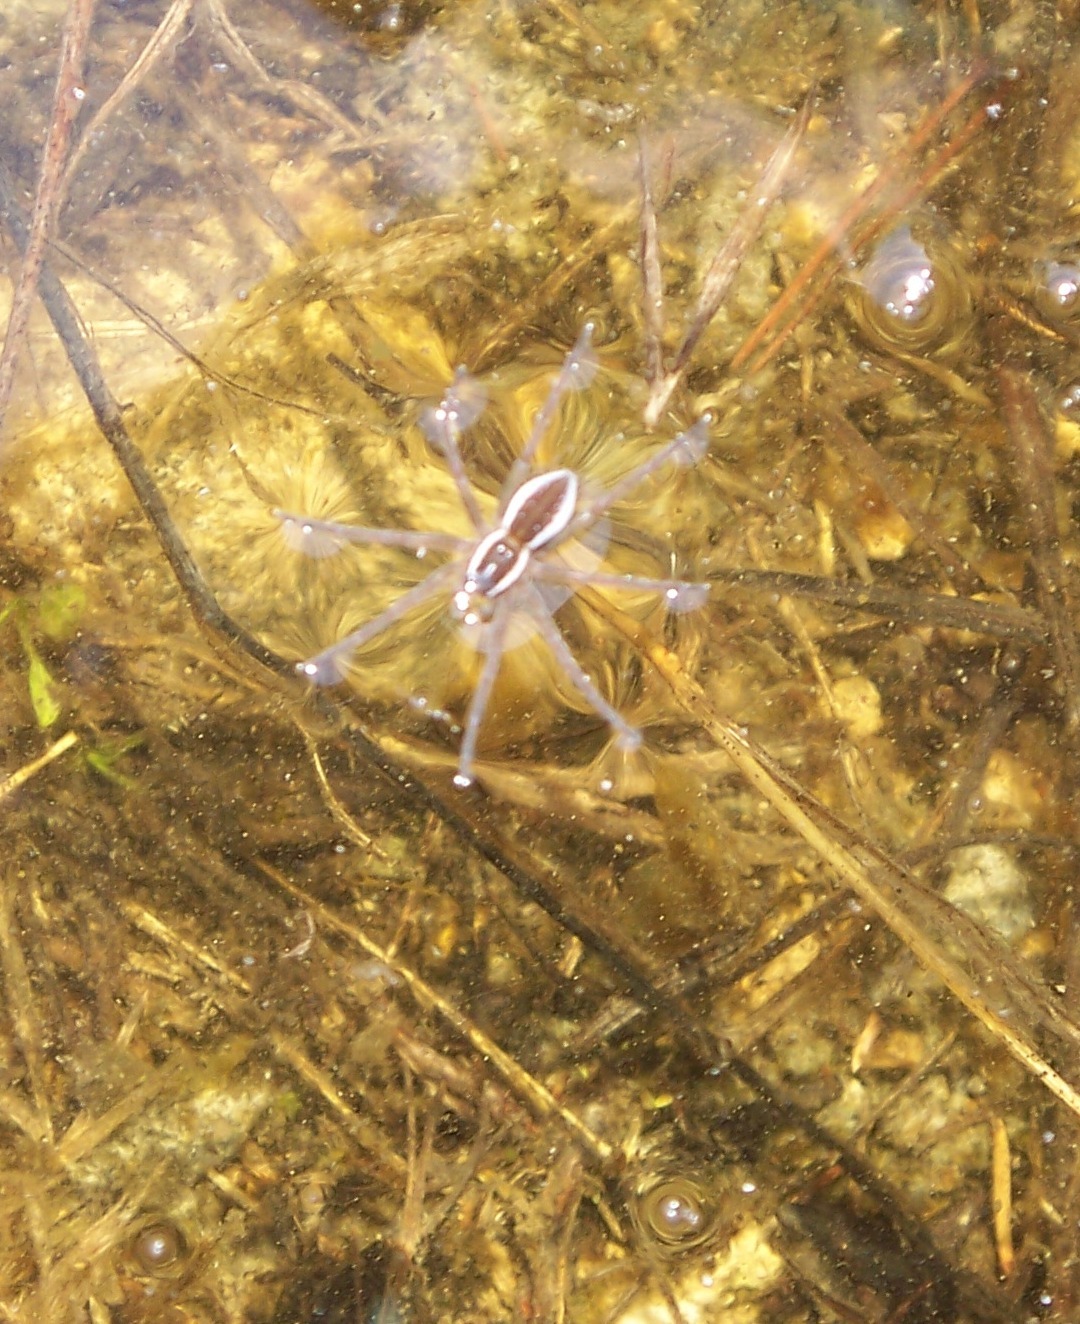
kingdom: Animalia
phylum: Arthropoda
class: Arachnida
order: Araneae
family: Pisauridae
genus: Dolomedes
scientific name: Dolomedes triton
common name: Six-spotted fishing spider
